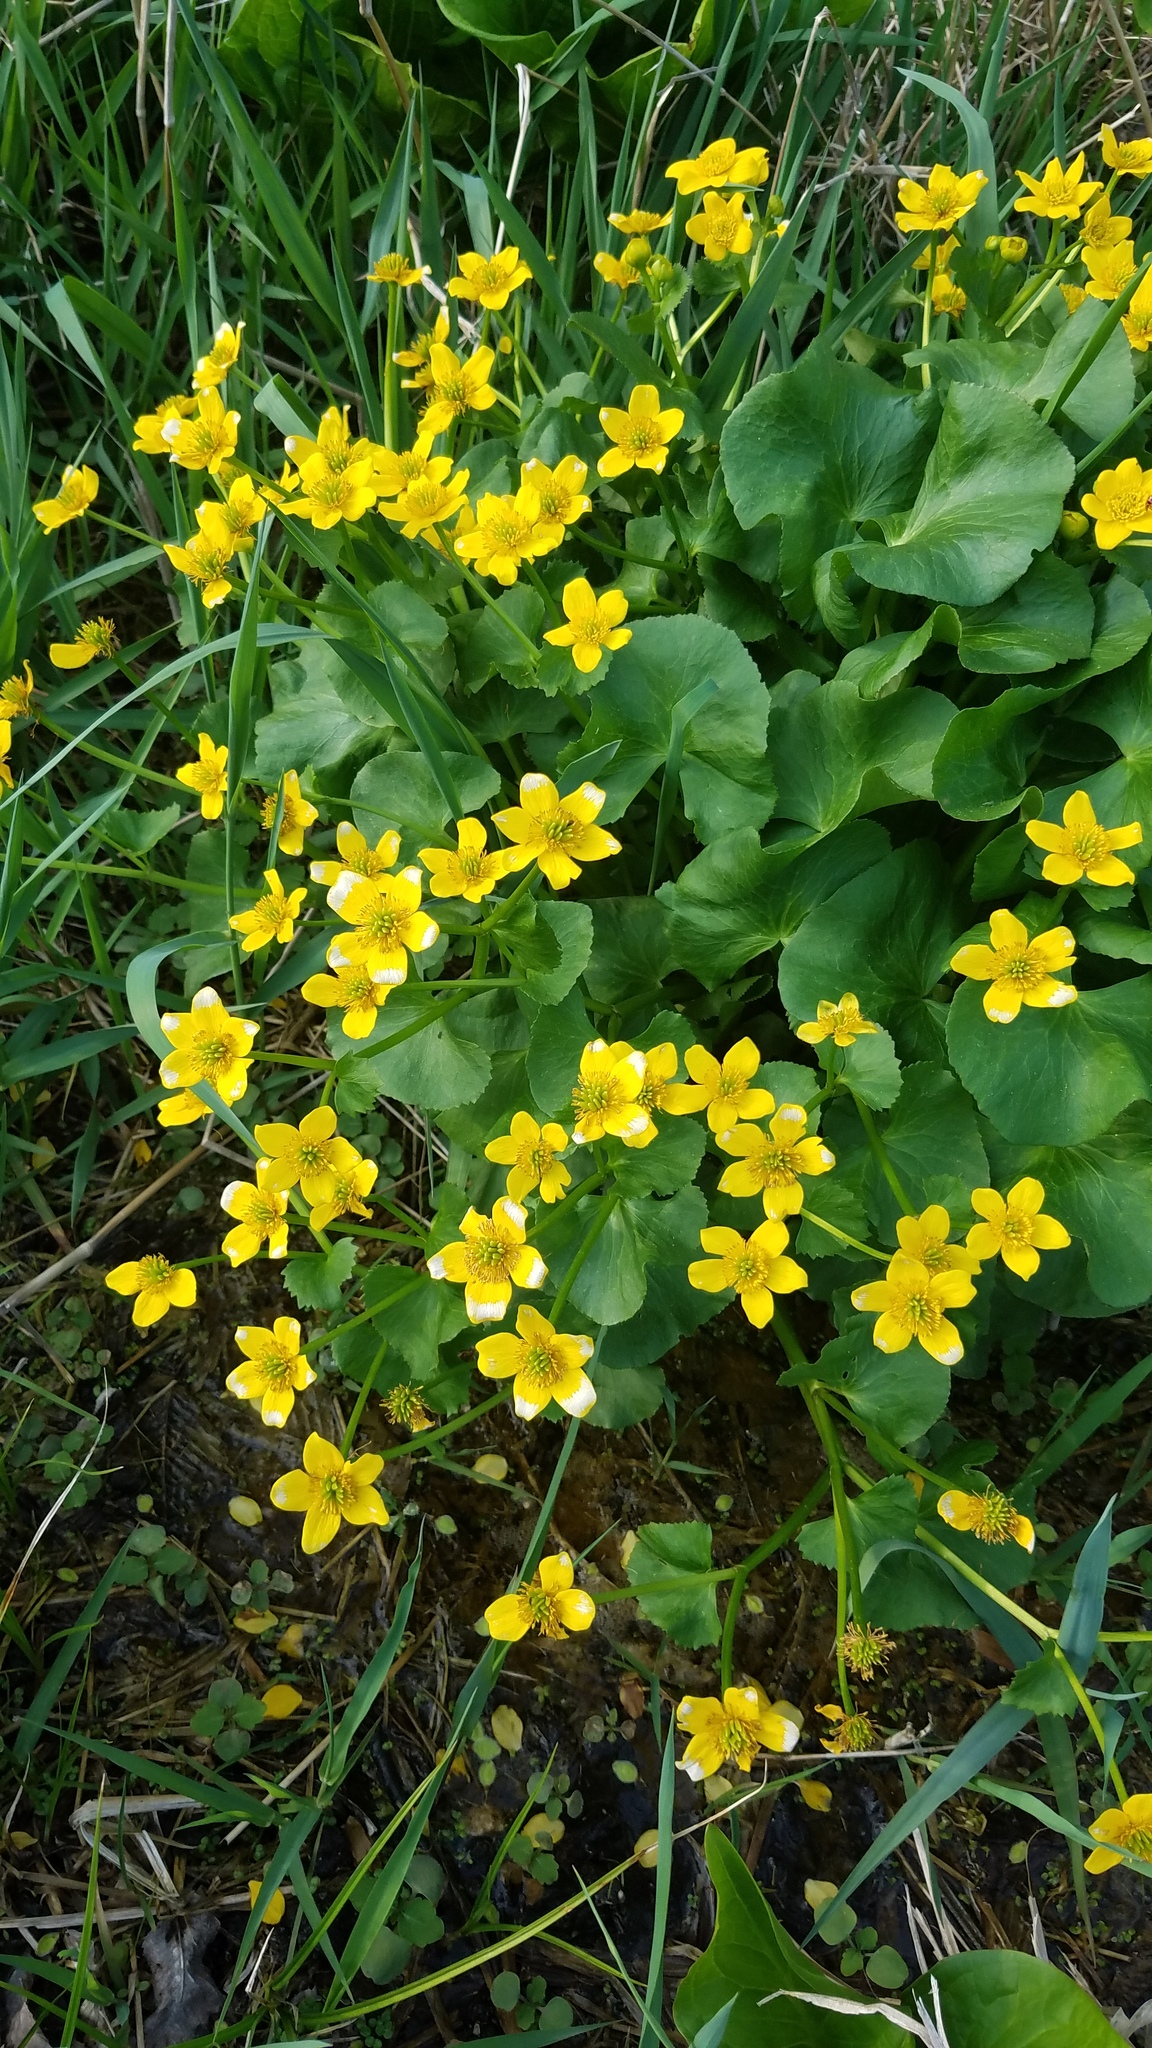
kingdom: Plantae
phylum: Tracheophyta
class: Magnoliopsida
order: Ranunculales
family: Ranunculaceae
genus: Caltha
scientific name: Caltha palustris
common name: Marsh marigold
